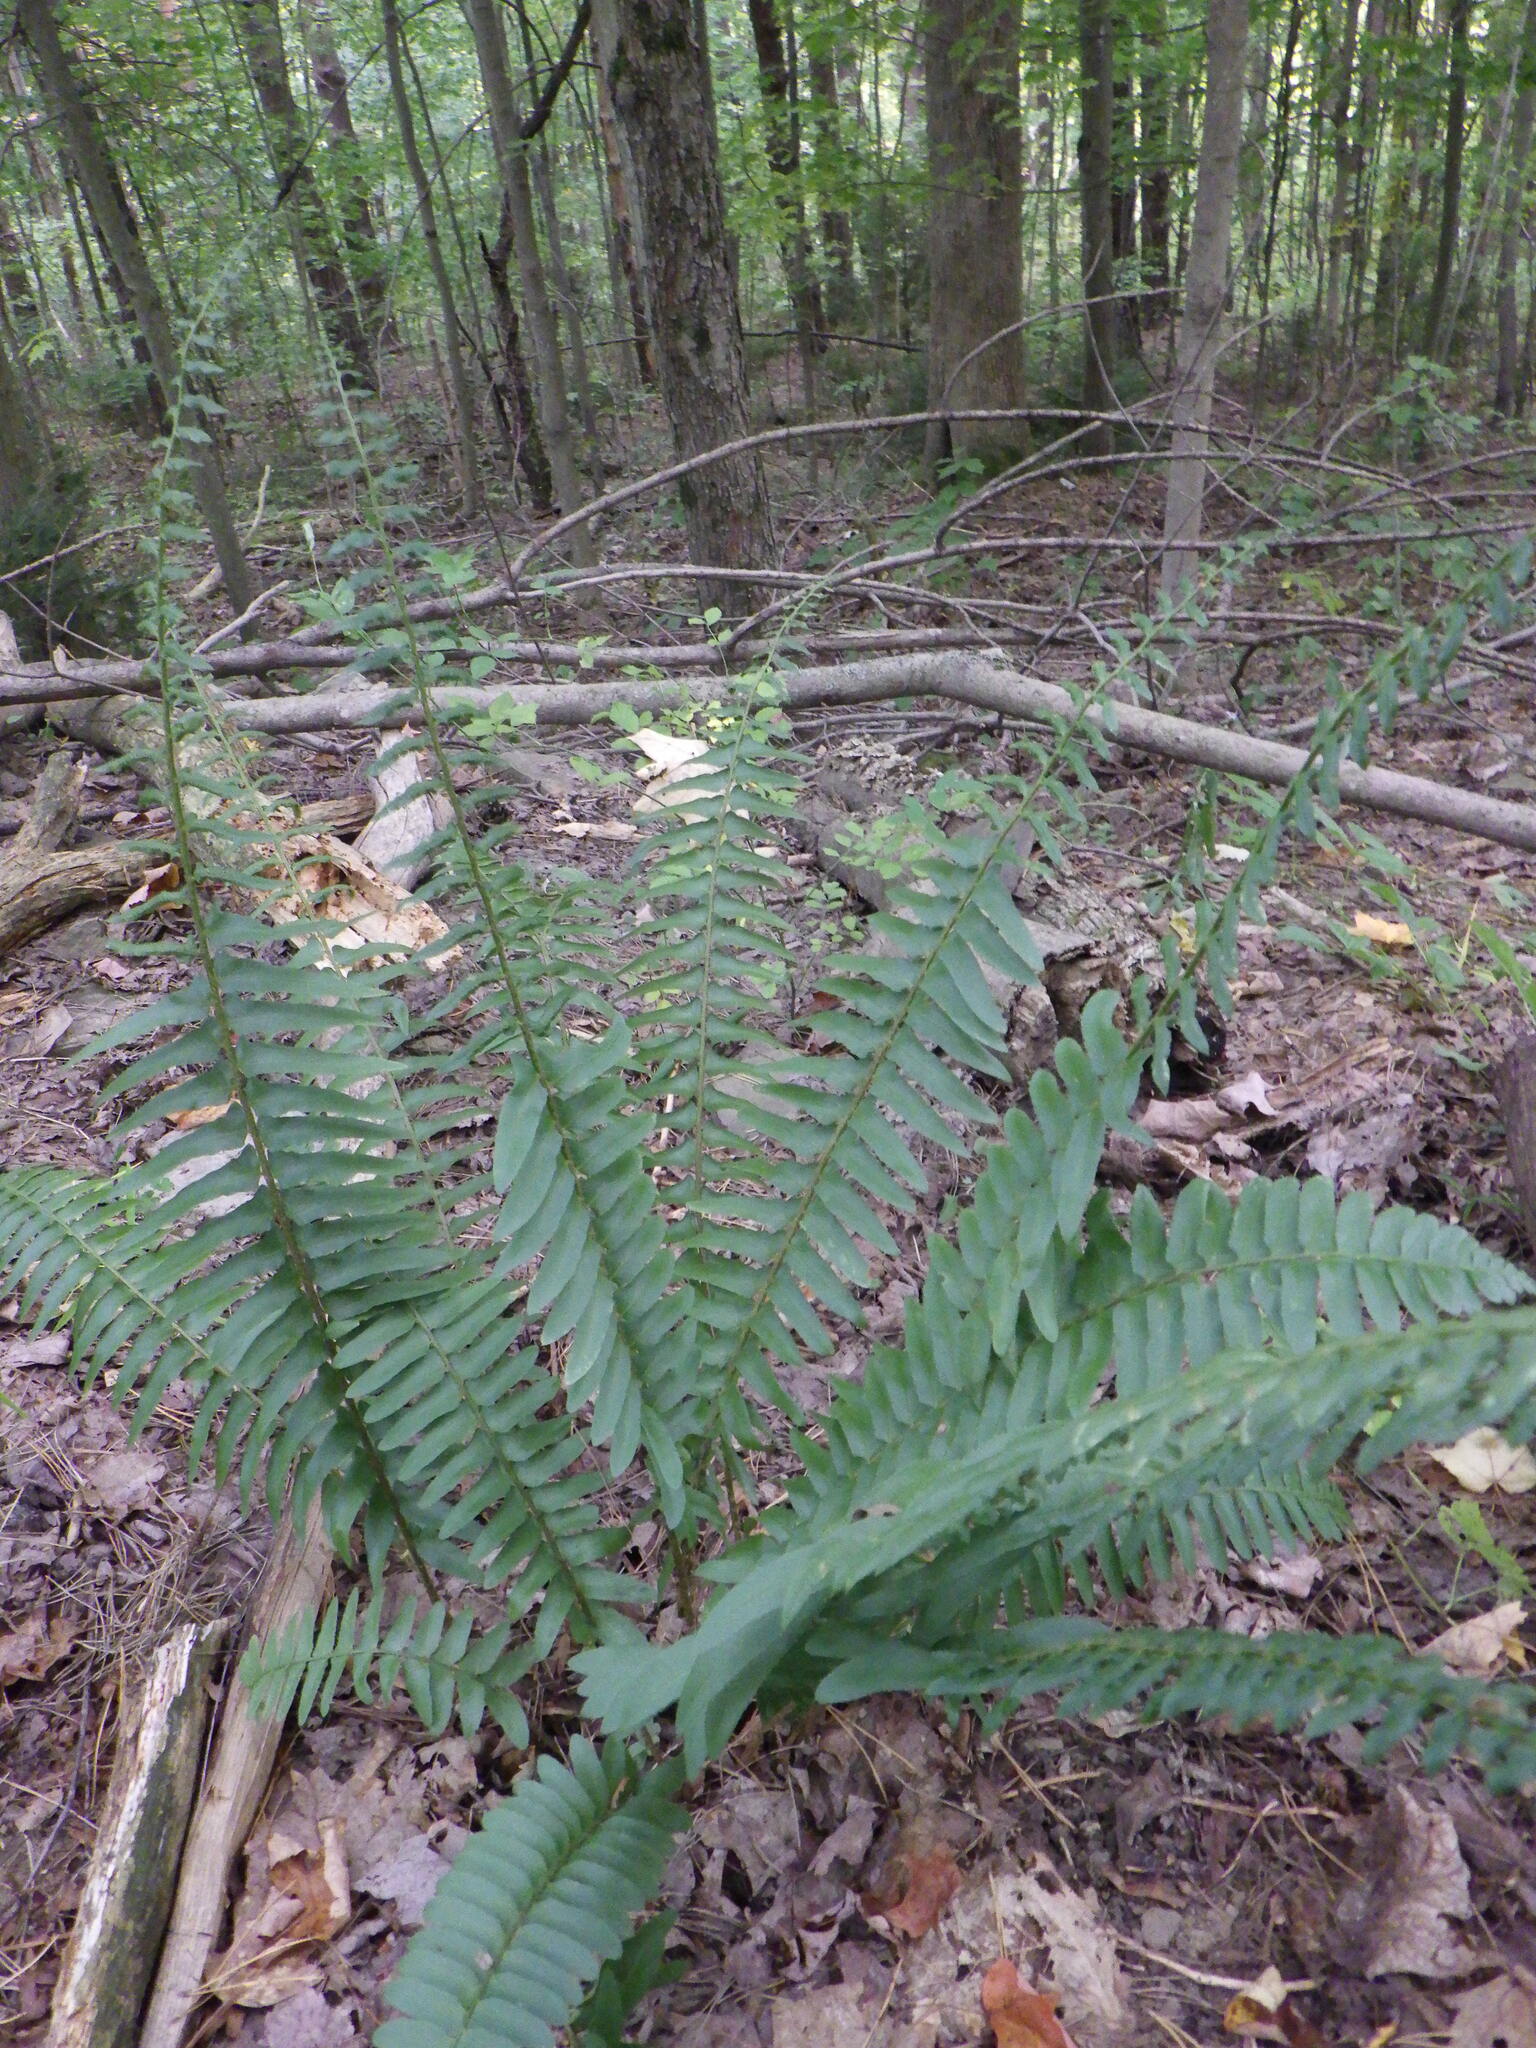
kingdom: Plantae
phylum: Tracheophyta
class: Polypodiopsida
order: Polypodiales
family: Dryopteridaceae
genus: Polystichum
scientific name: Polystichum acrostichoides
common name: Christmas fern
